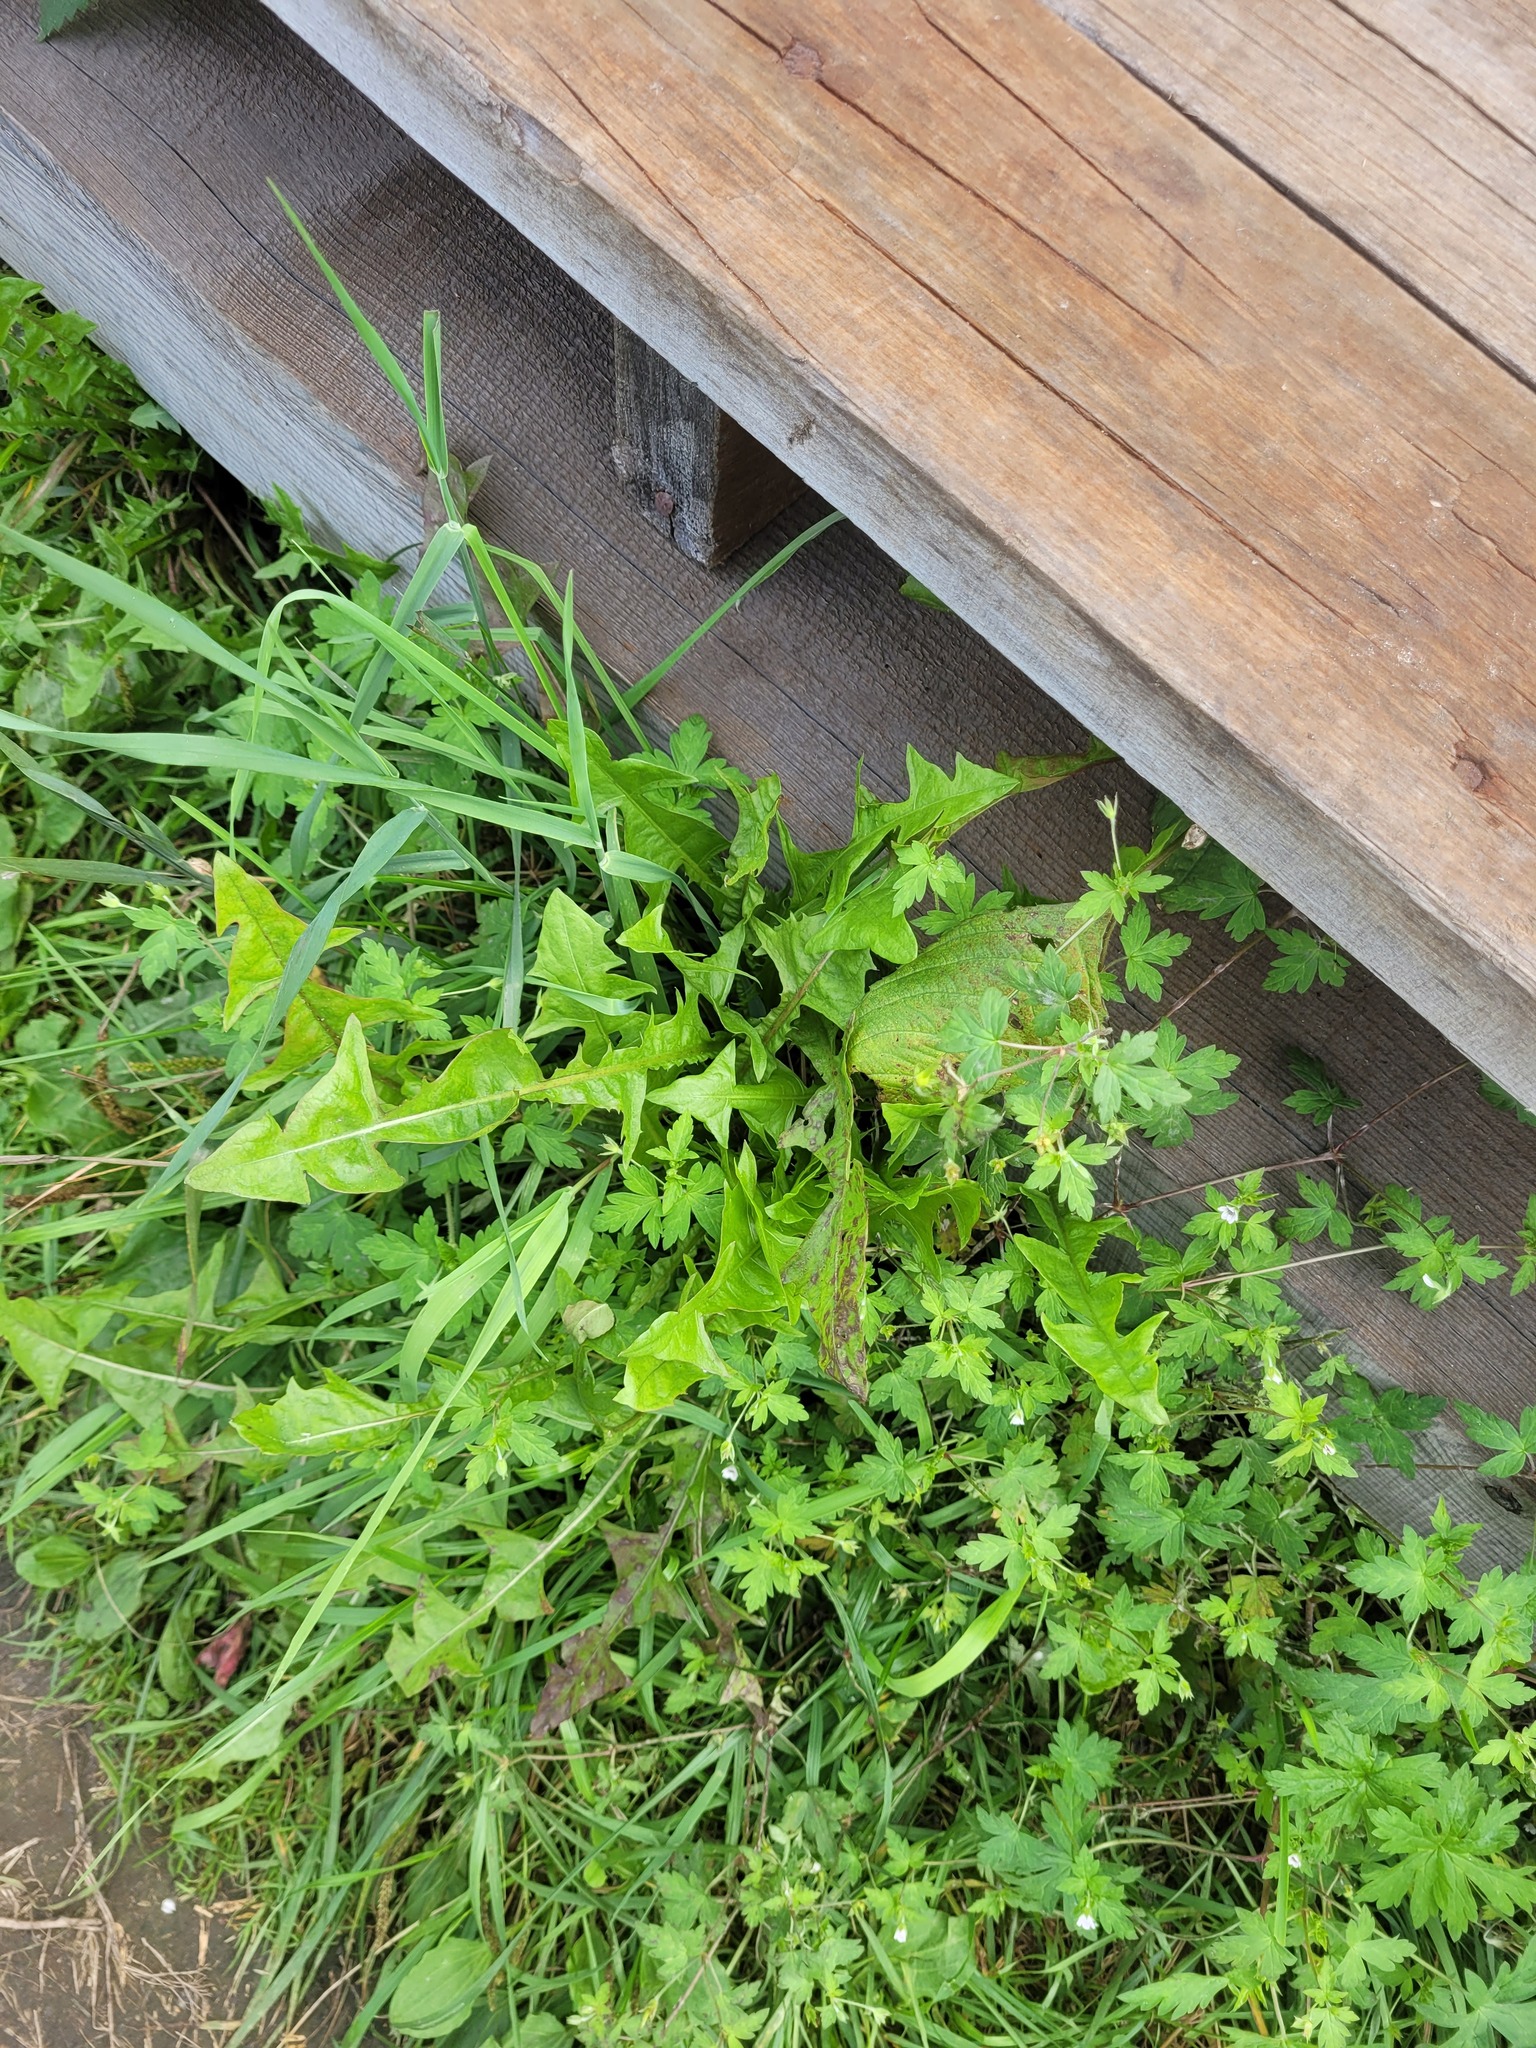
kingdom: Plantae
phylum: Tracheophyta
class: Magnoliopsida
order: Asterales
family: Asteraceae
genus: Taraxacum
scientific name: Taraxacum officinale
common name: Common dandelion
